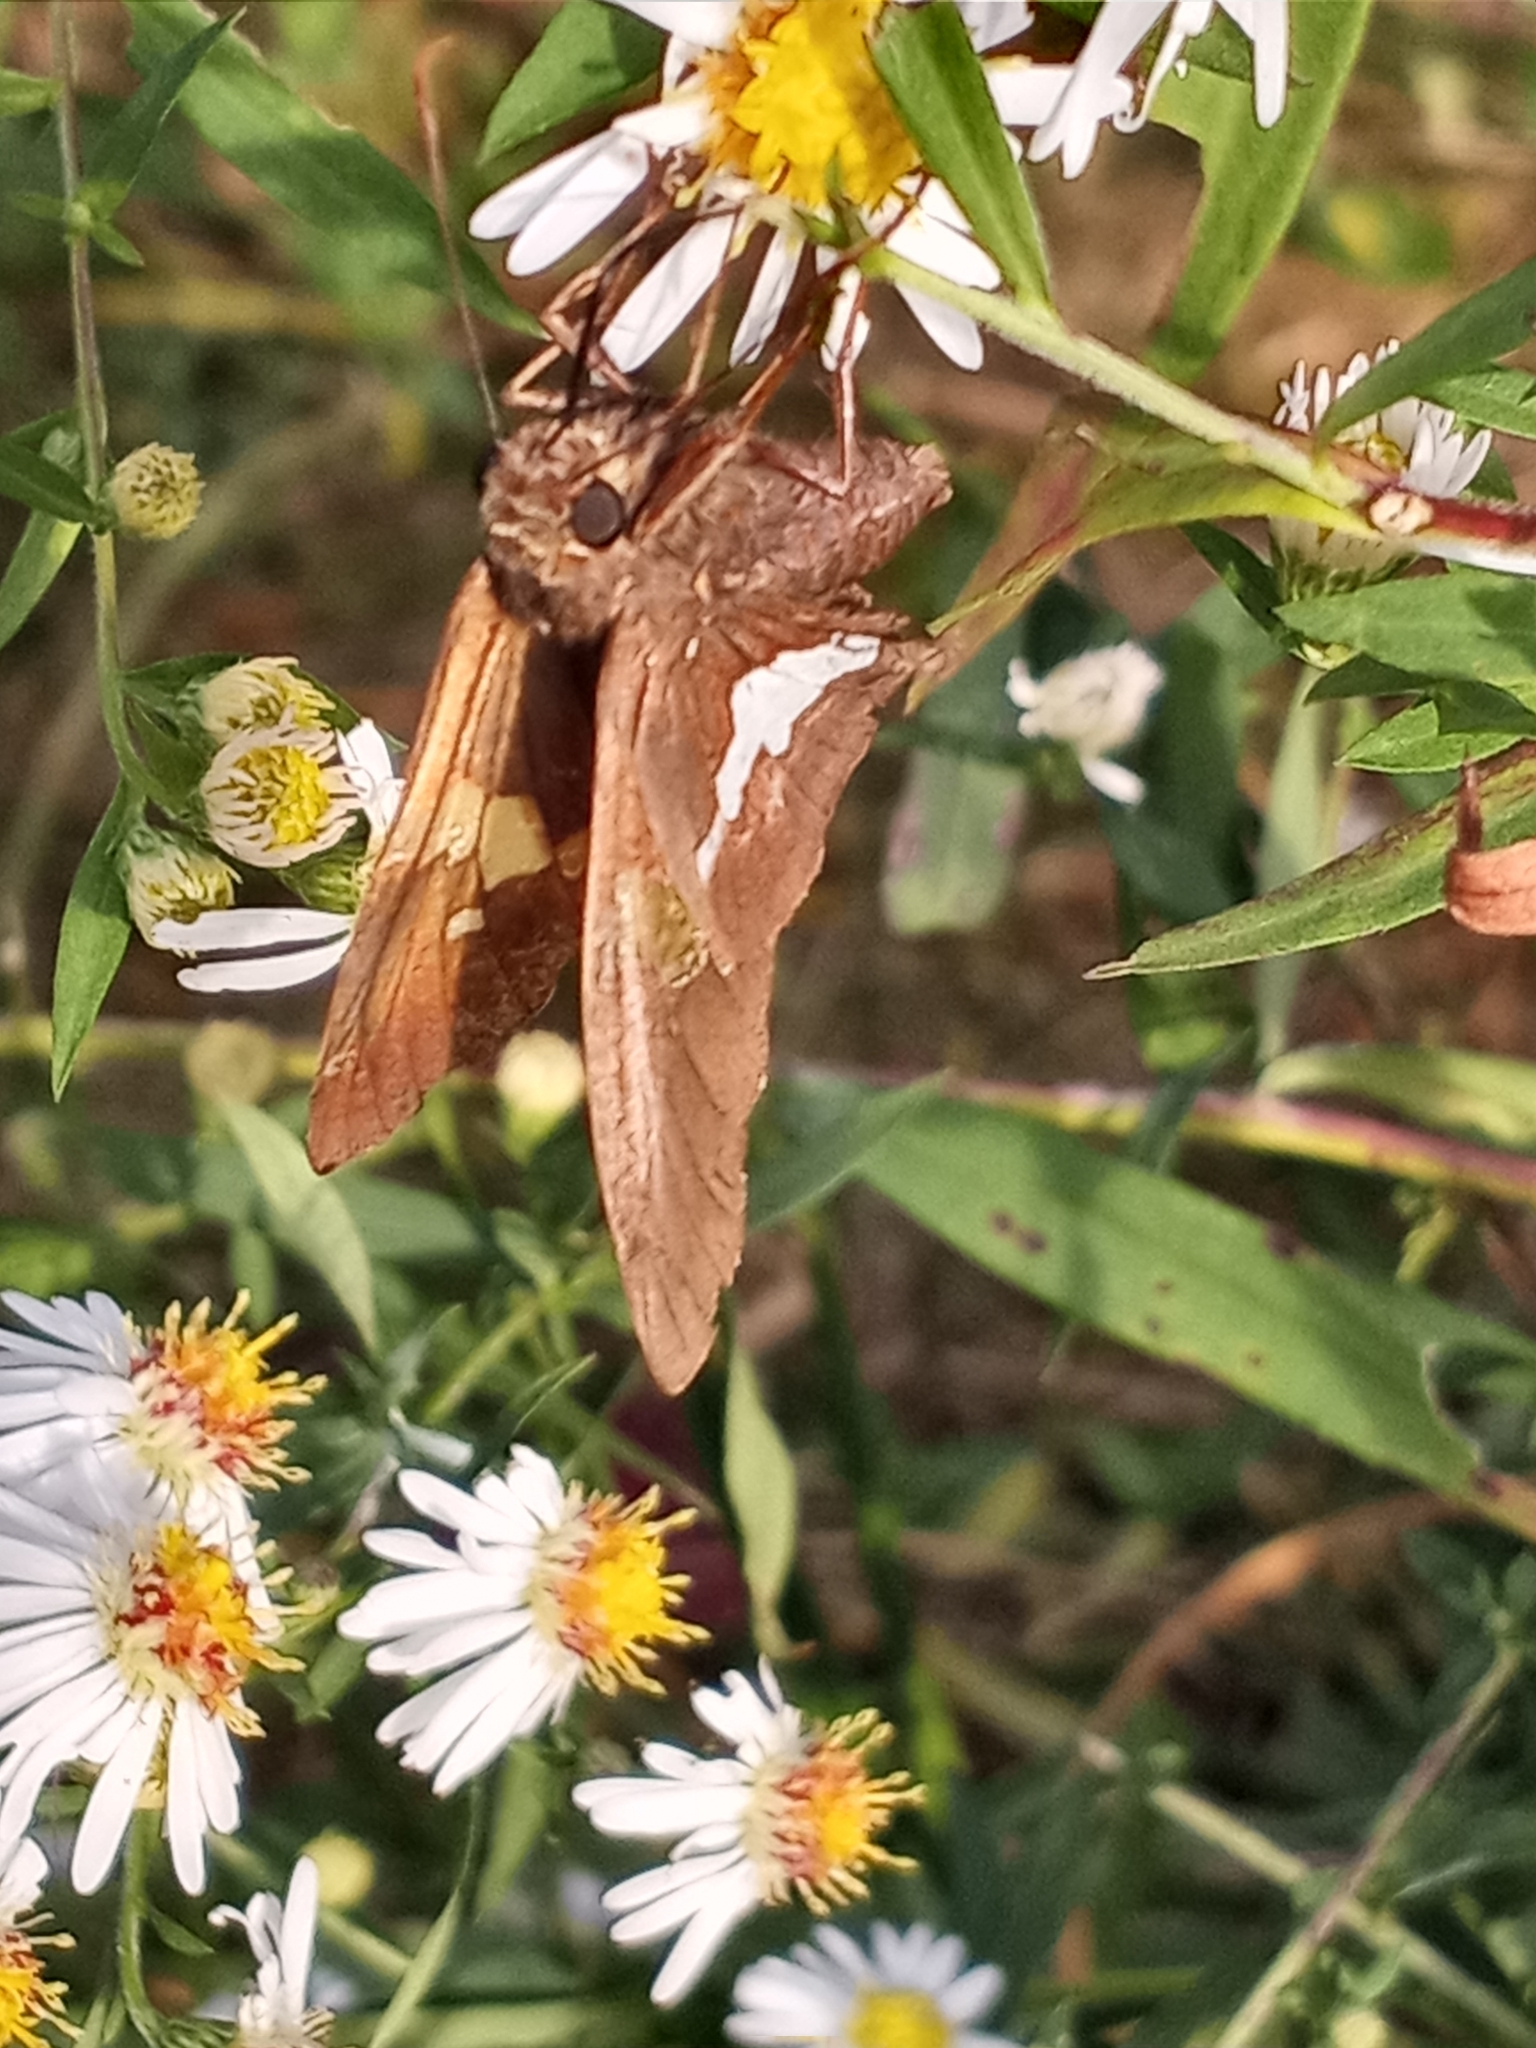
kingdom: Animalia
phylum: Arthropoda
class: Insecta
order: Lepidoptera
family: Hesperiidae
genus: Epargyreus
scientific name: Epargyreus clarus
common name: Silver-spotted skipper
